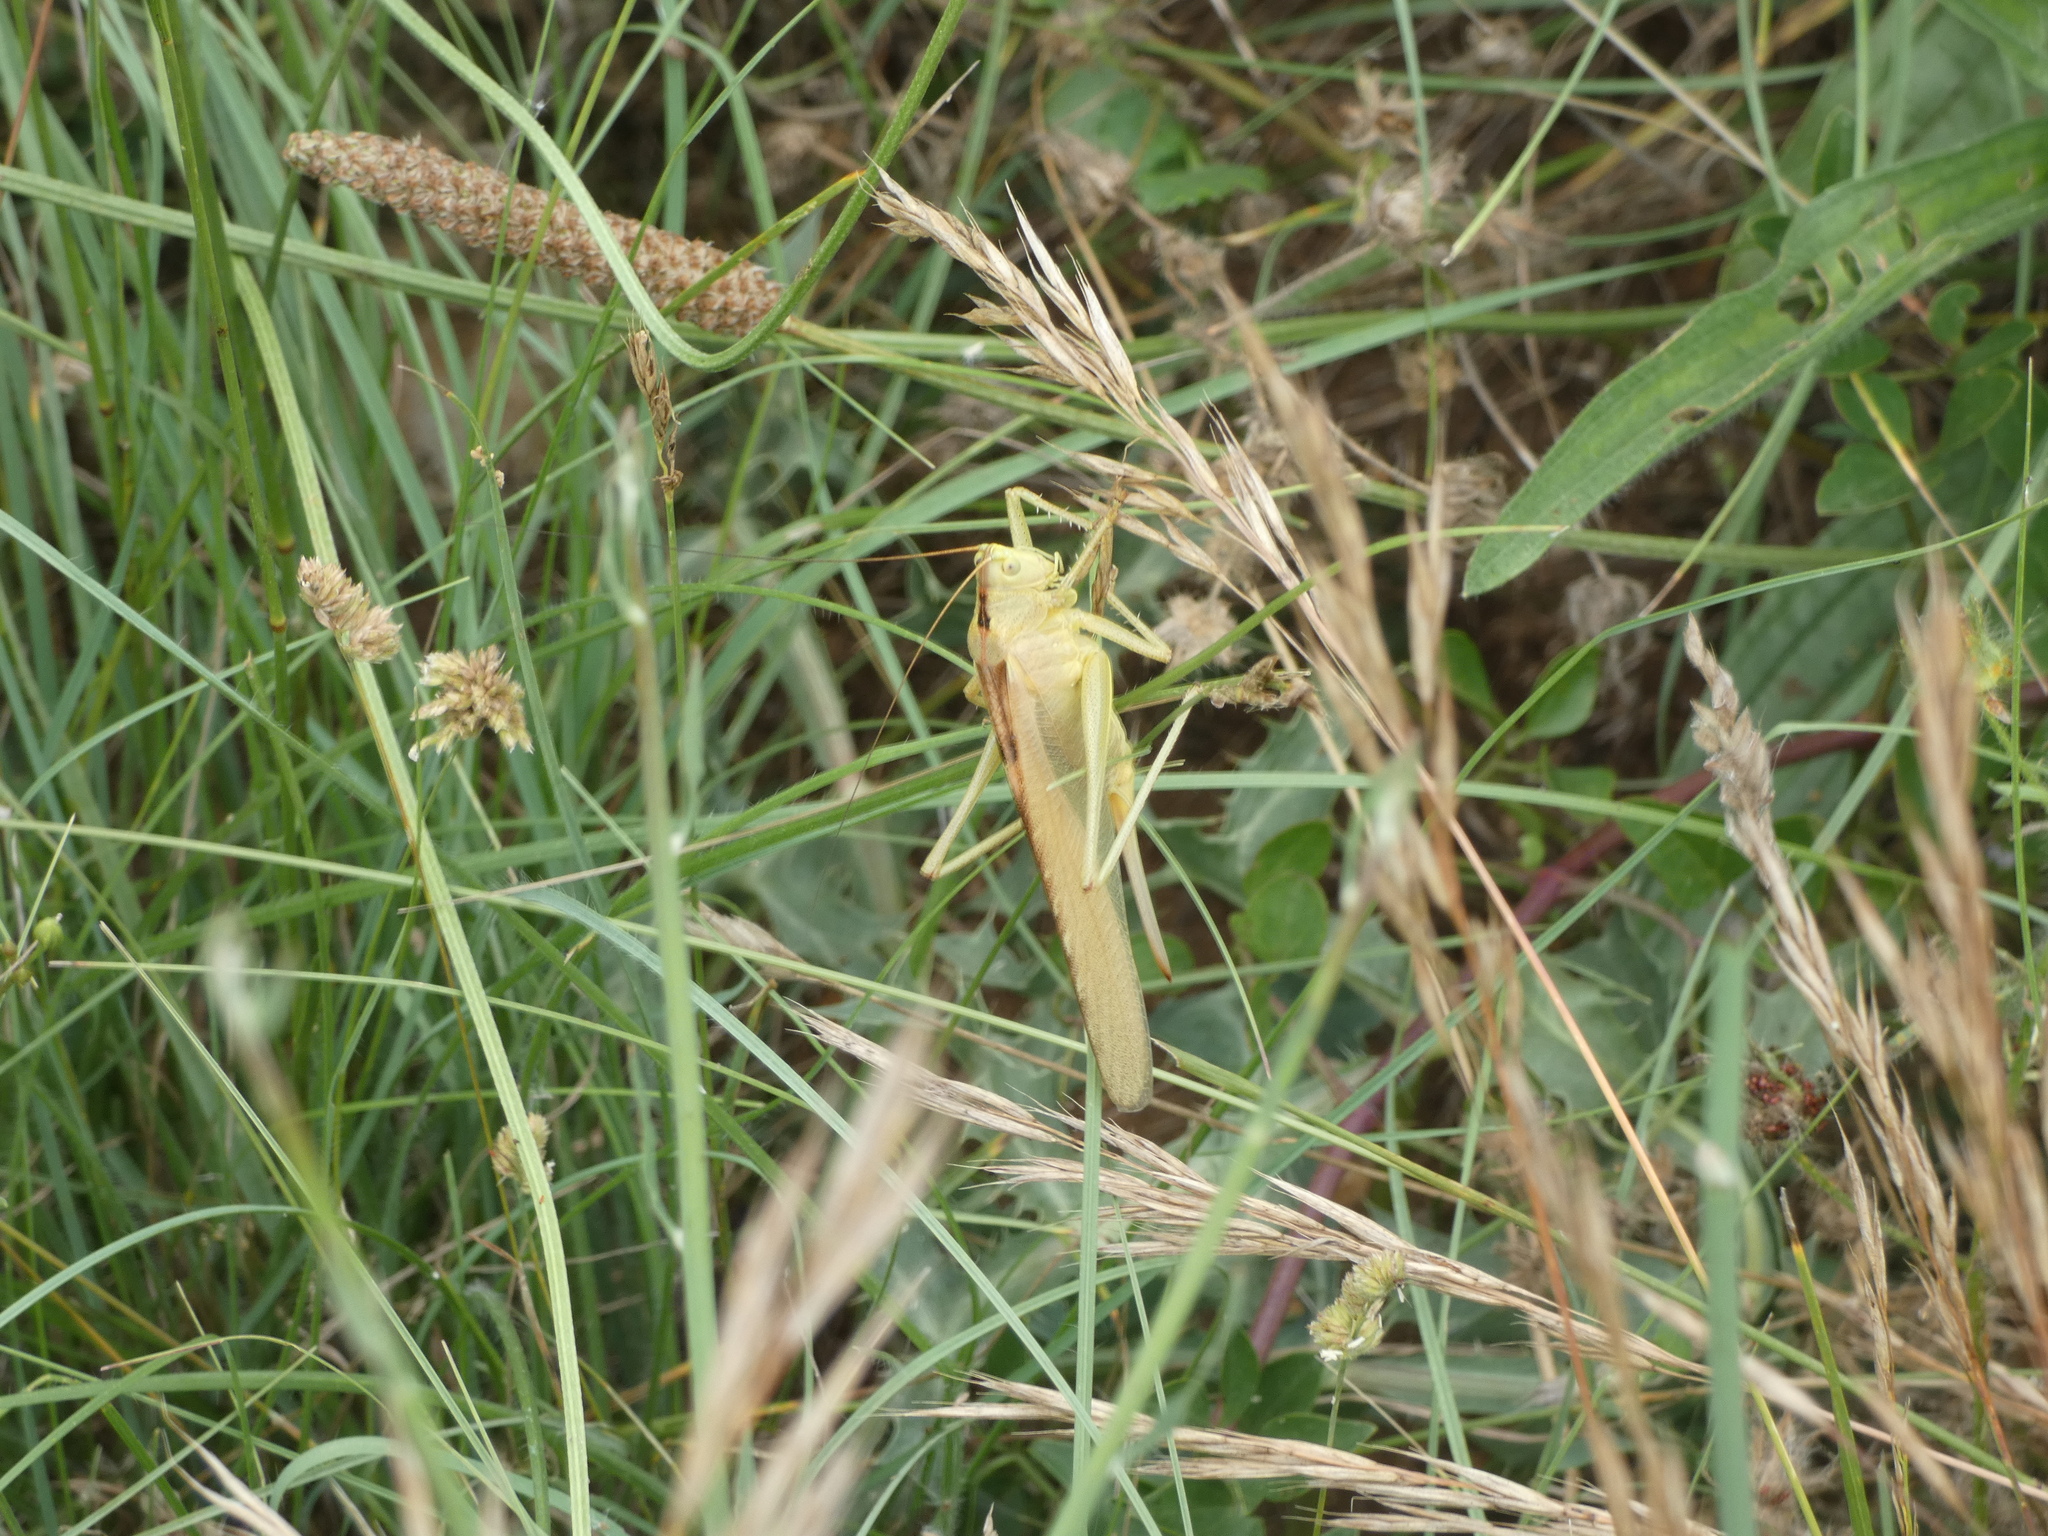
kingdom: Animalia
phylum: Arthropoda
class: Insecta
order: Orthoptera
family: Tettigoniidae
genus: Tettigonia
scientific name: Tettigonia viridissima
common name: Great green bush-cricket
